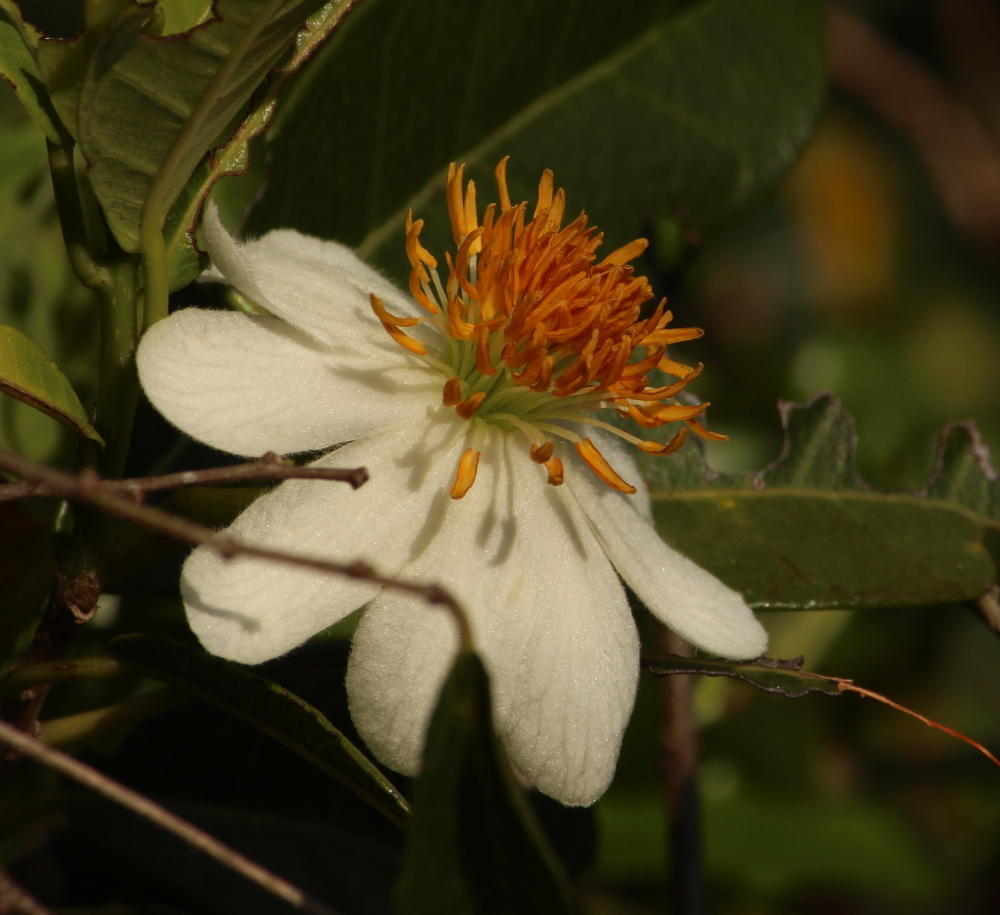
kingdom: Plantae
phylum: Tracheophyta
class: Magnoliopsida
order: Malpighiales
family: Achariaceae
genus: Xylotheca
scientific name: Xylotheca kraussiana
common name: African dog rose
